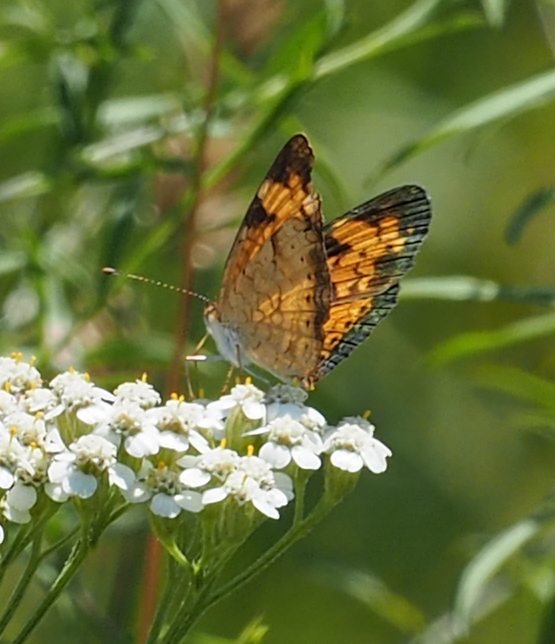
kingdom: Animalia
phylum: Arthropoda
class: Insecta
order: Lepidoptera
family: Nymphalidae
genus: Phyciodes
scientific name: Phyciodes tharos
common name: Pearl crescent
